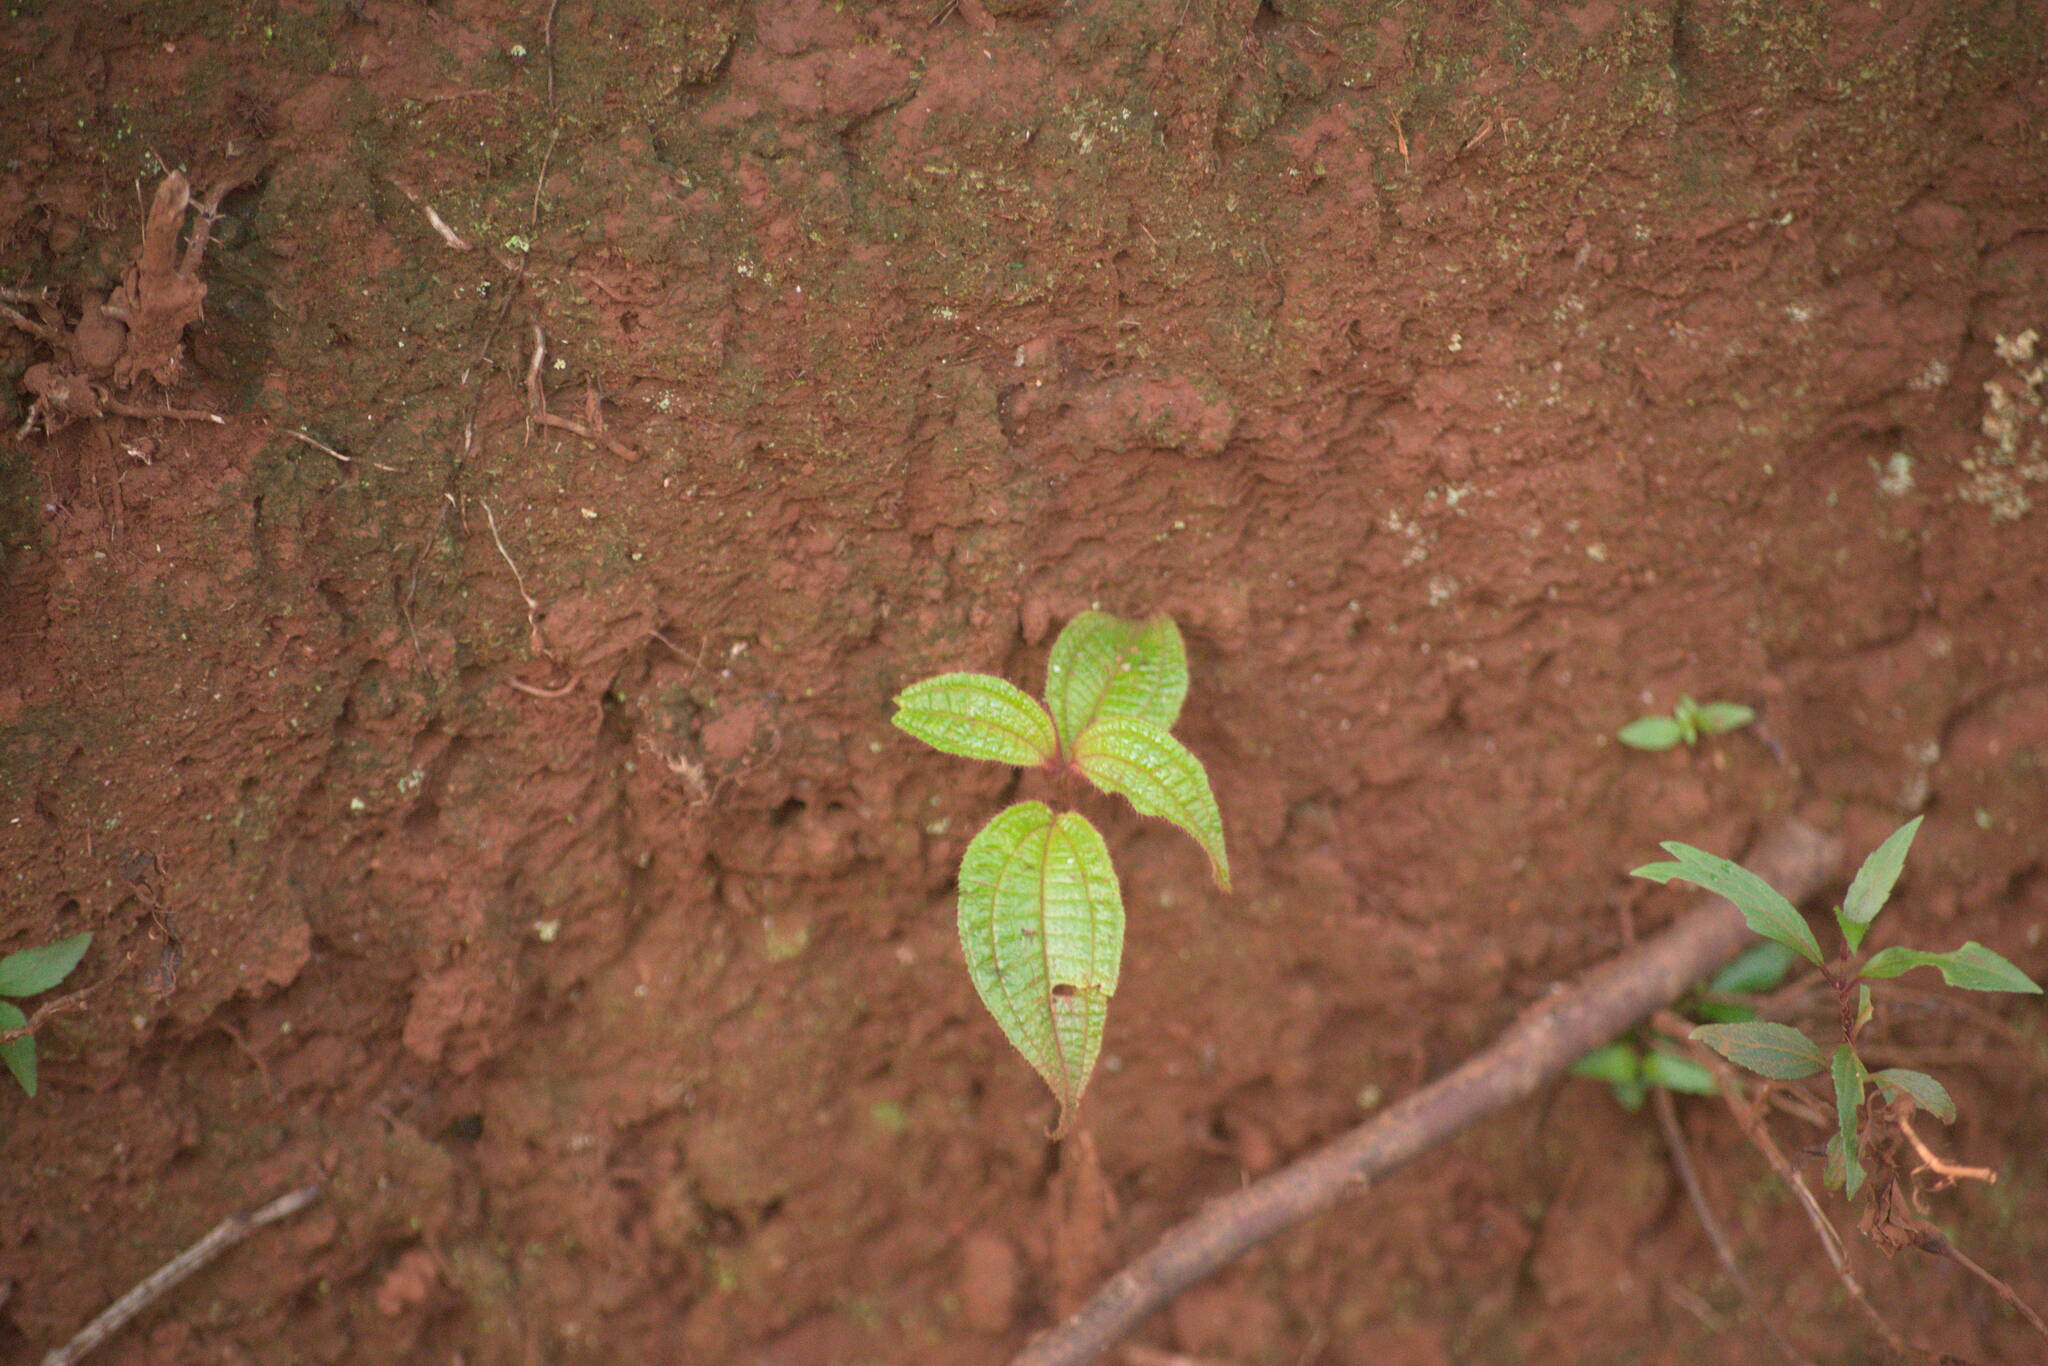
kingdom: Plantae
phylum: Tracheophyta
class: Magnoliopsida
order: Myrtales
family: Melastomataceae
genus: Miconia
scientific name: Miconia crenata
